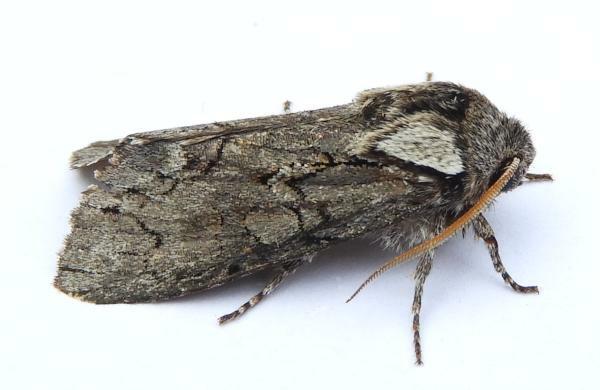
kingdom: Animalia
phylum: Arthropoda
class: Insecta
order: Lepidoptera
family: Noctuidae
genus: Psaphida
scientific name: Psaphida electilis
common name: Chosen sallow
